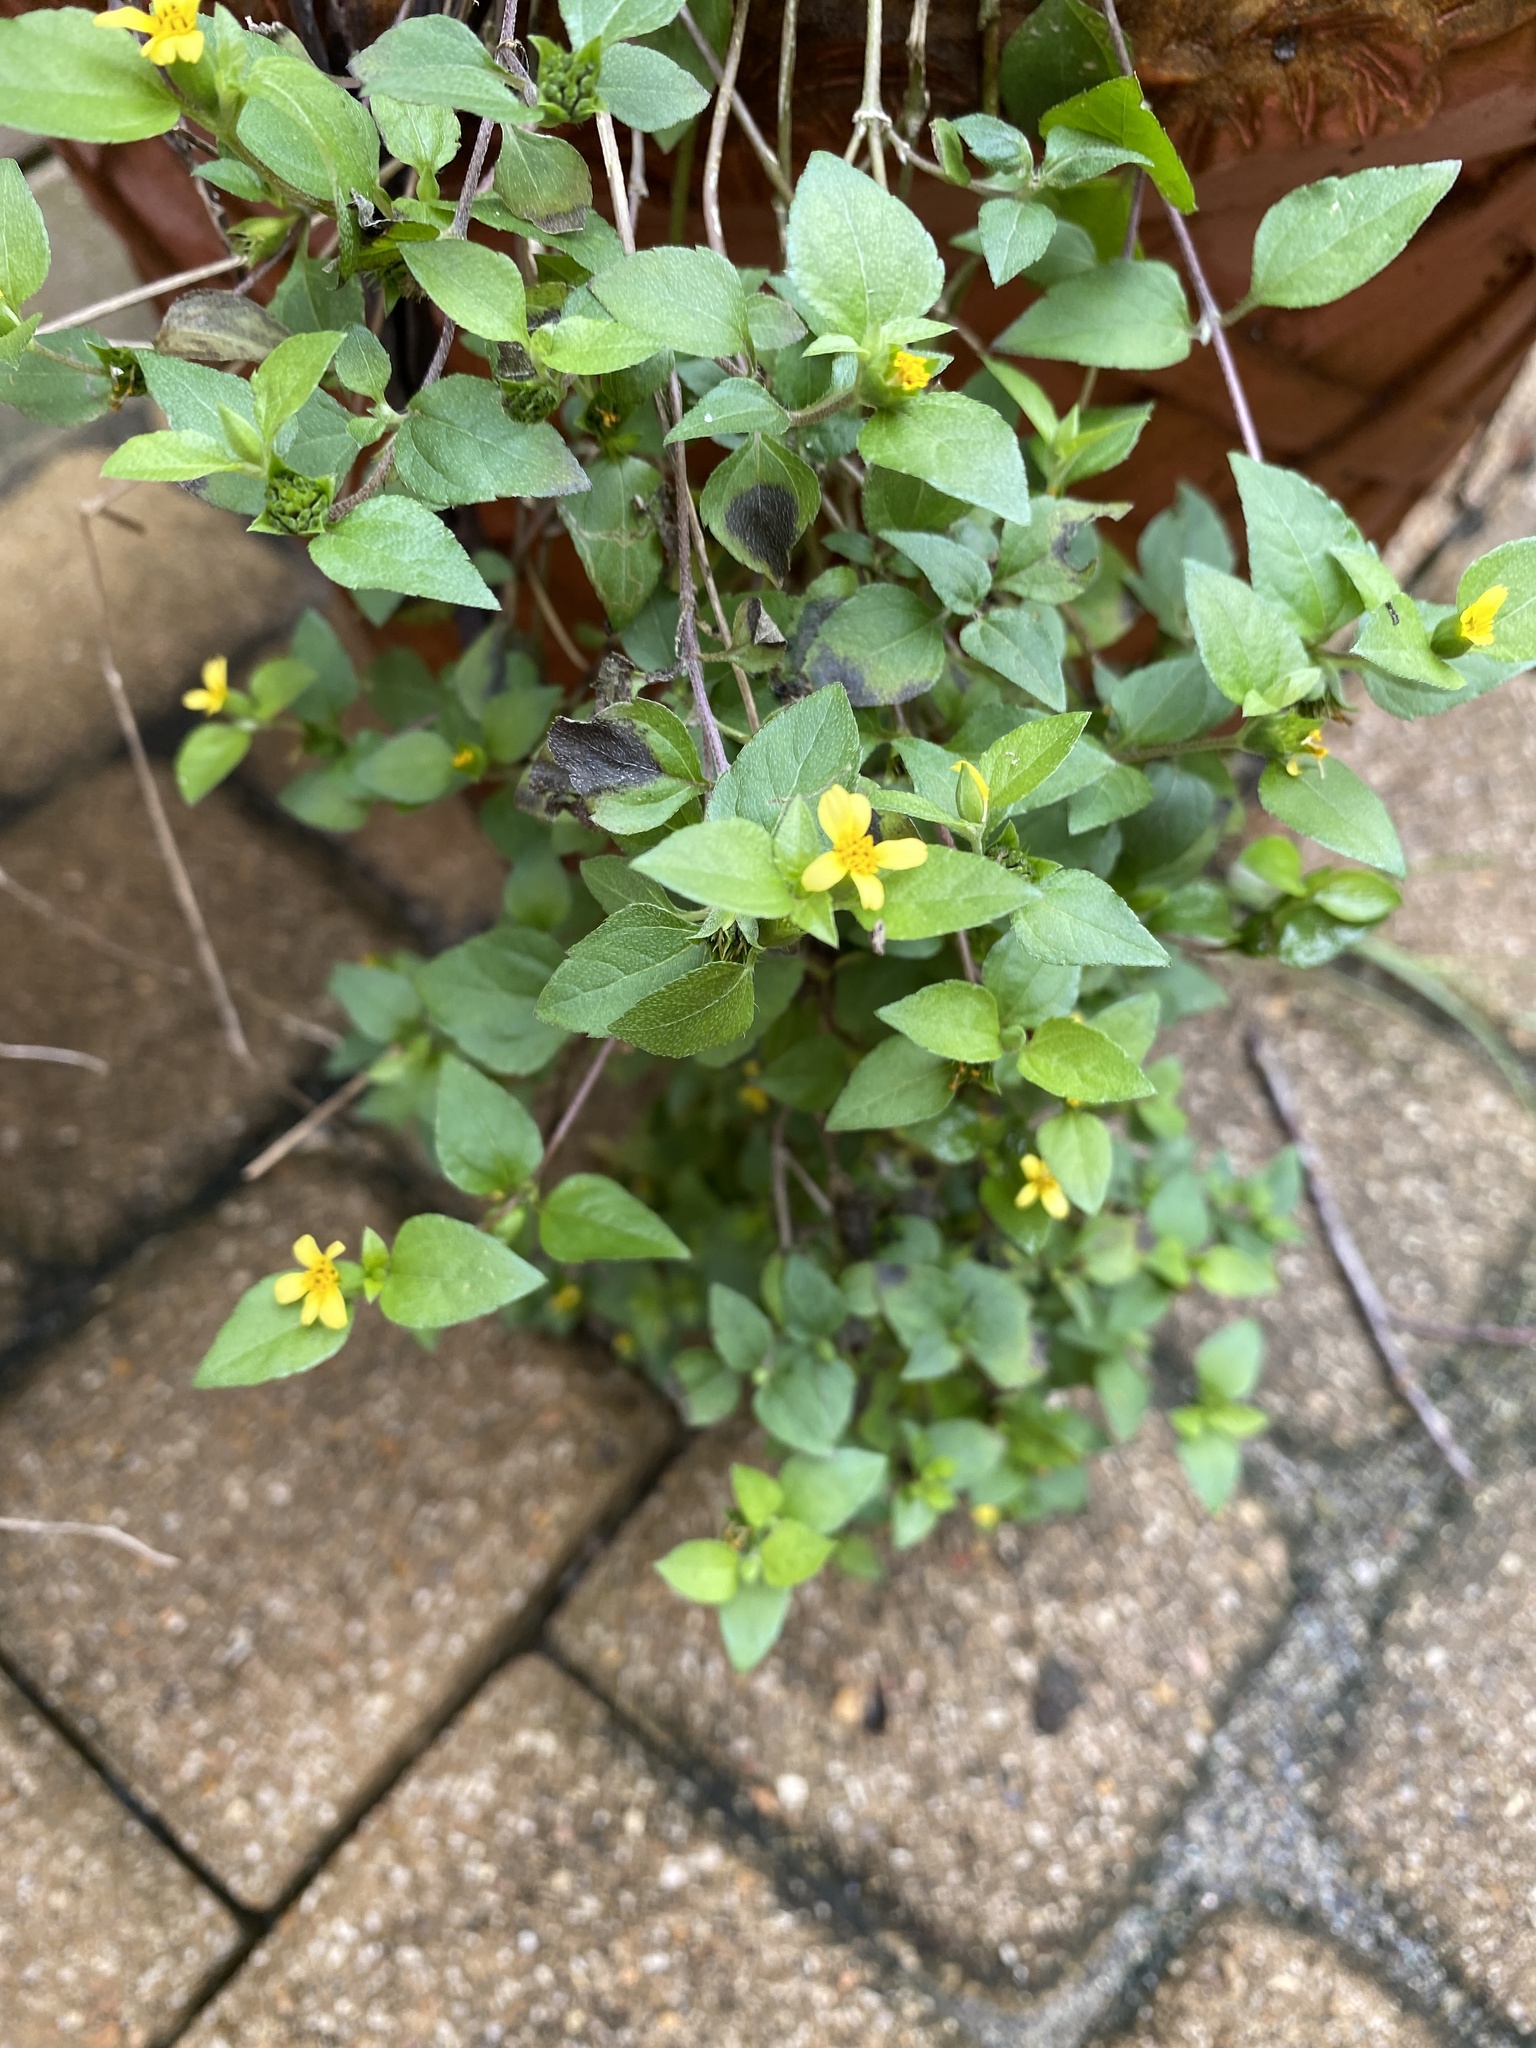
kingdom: Plantae
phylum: Tracheophyta
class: Magnoliopsida
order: Asterales
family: Asteraceae
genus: Calyptocarpus
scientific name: Calyptocarpus vialis
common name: Straggler daisy
